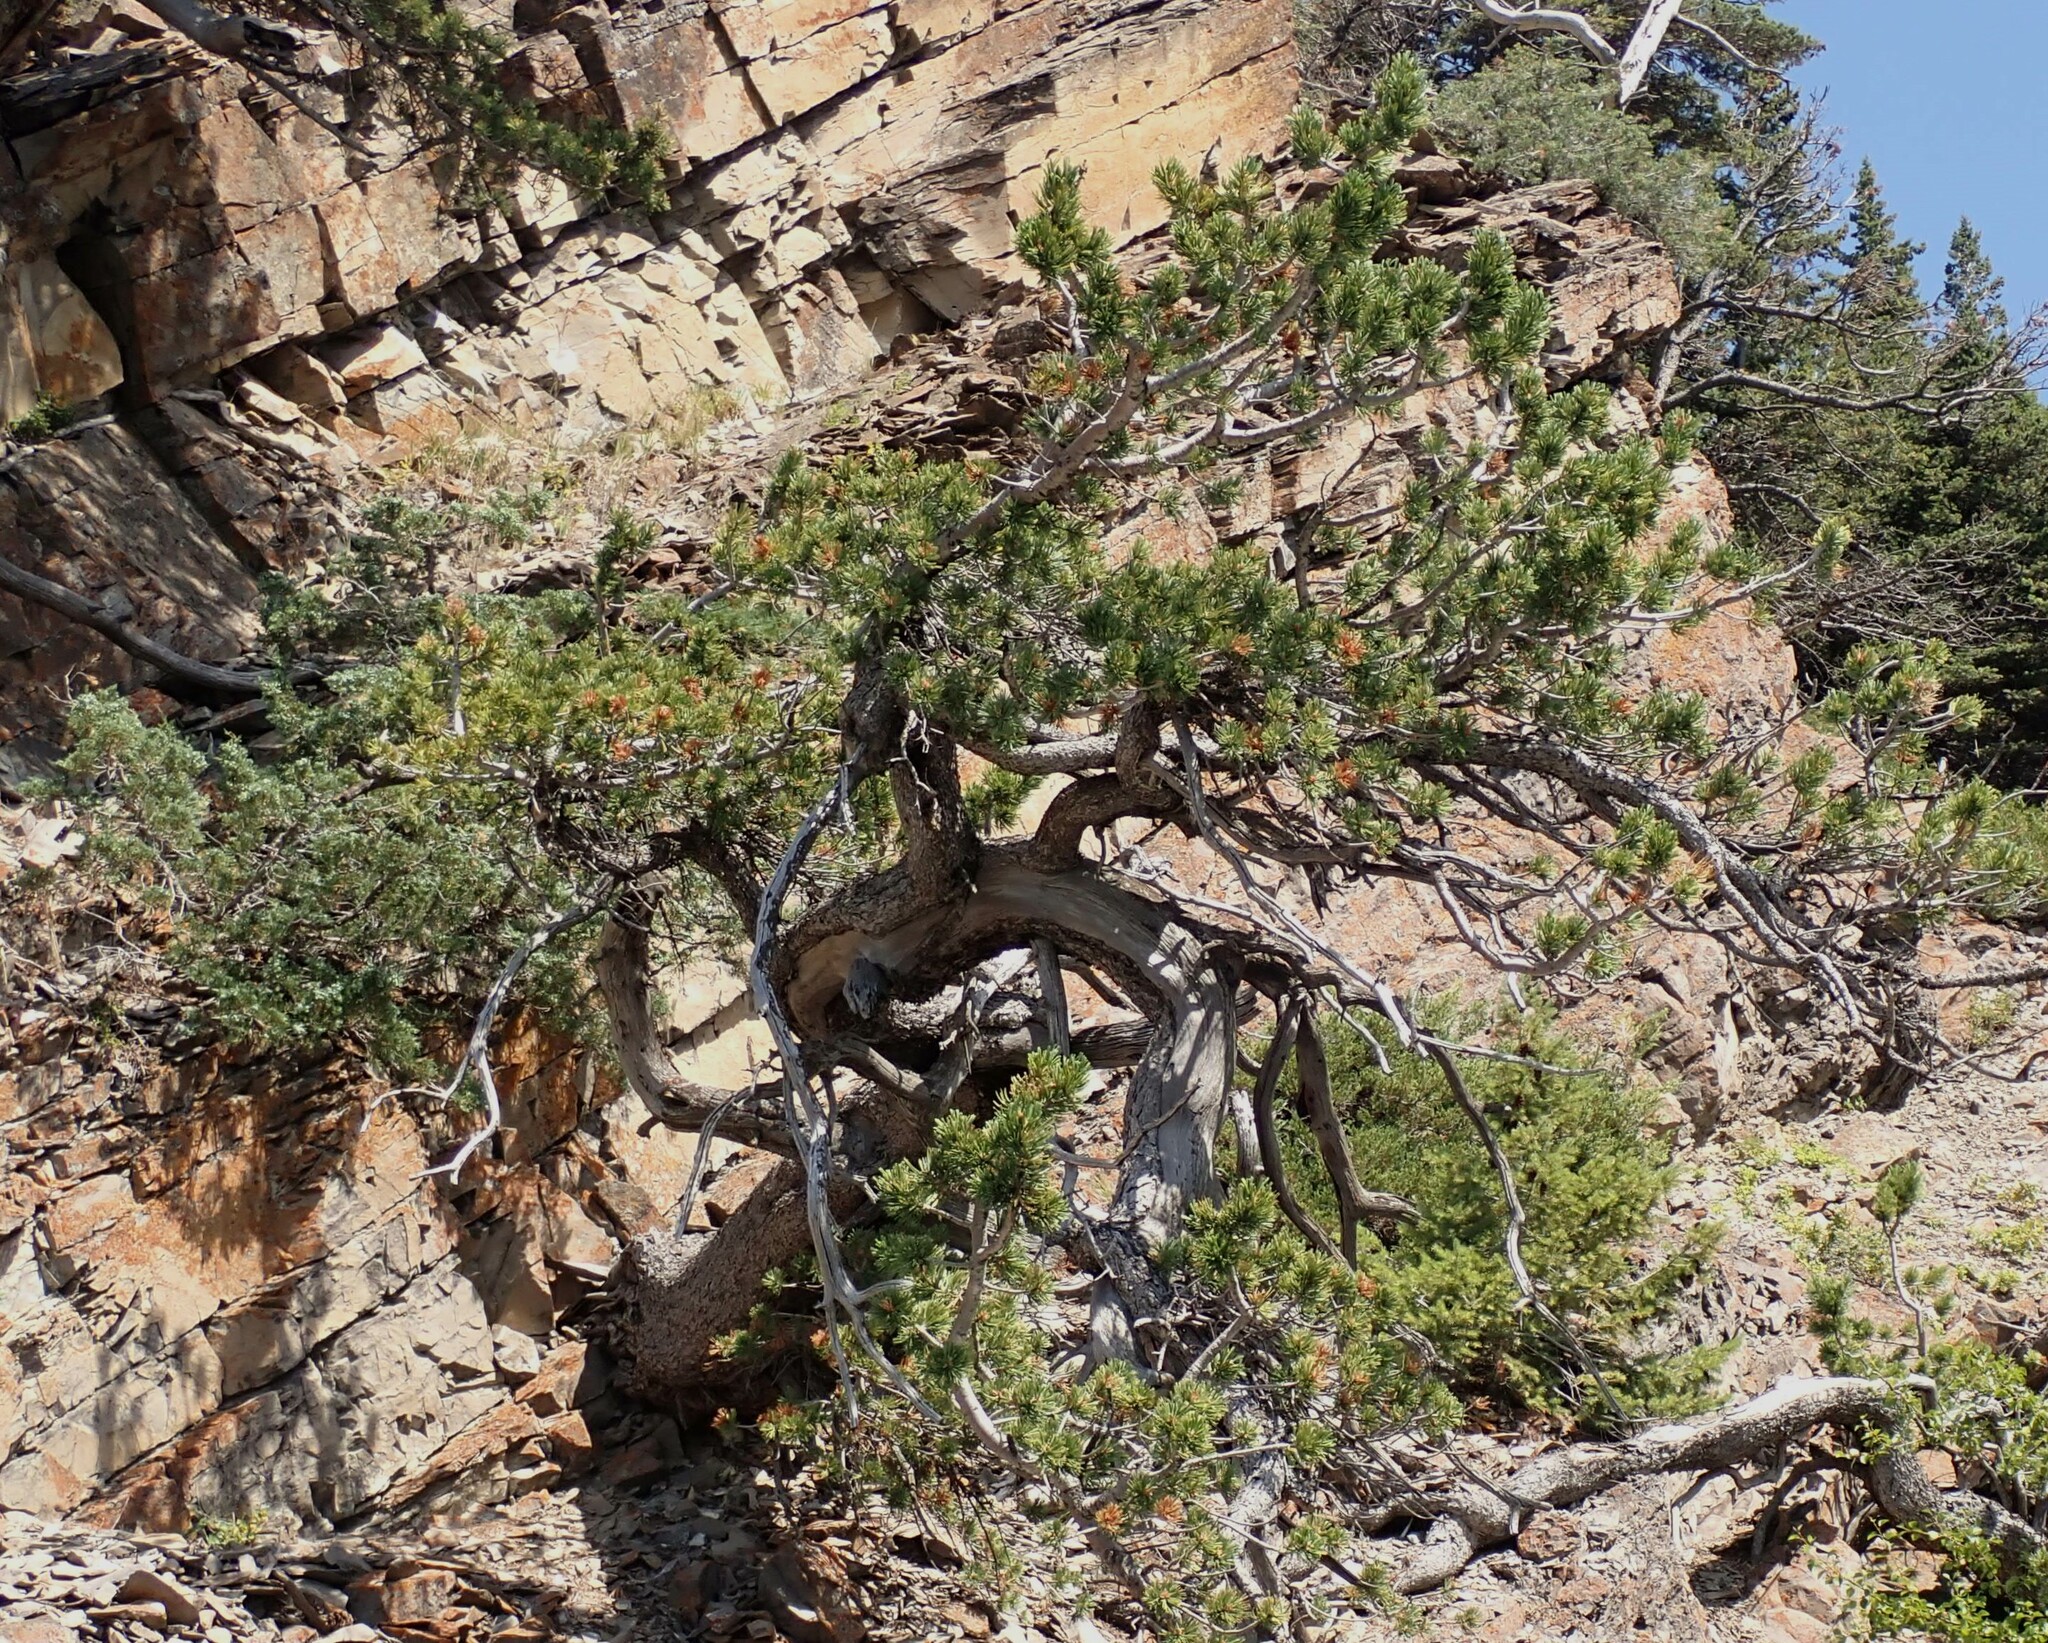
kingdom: Plantae
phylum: Tracheophyta
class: Pinopsida
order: Pinales
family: Pinaceae
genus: Pinus
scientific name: Pinus flexilis
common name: Limber pine
